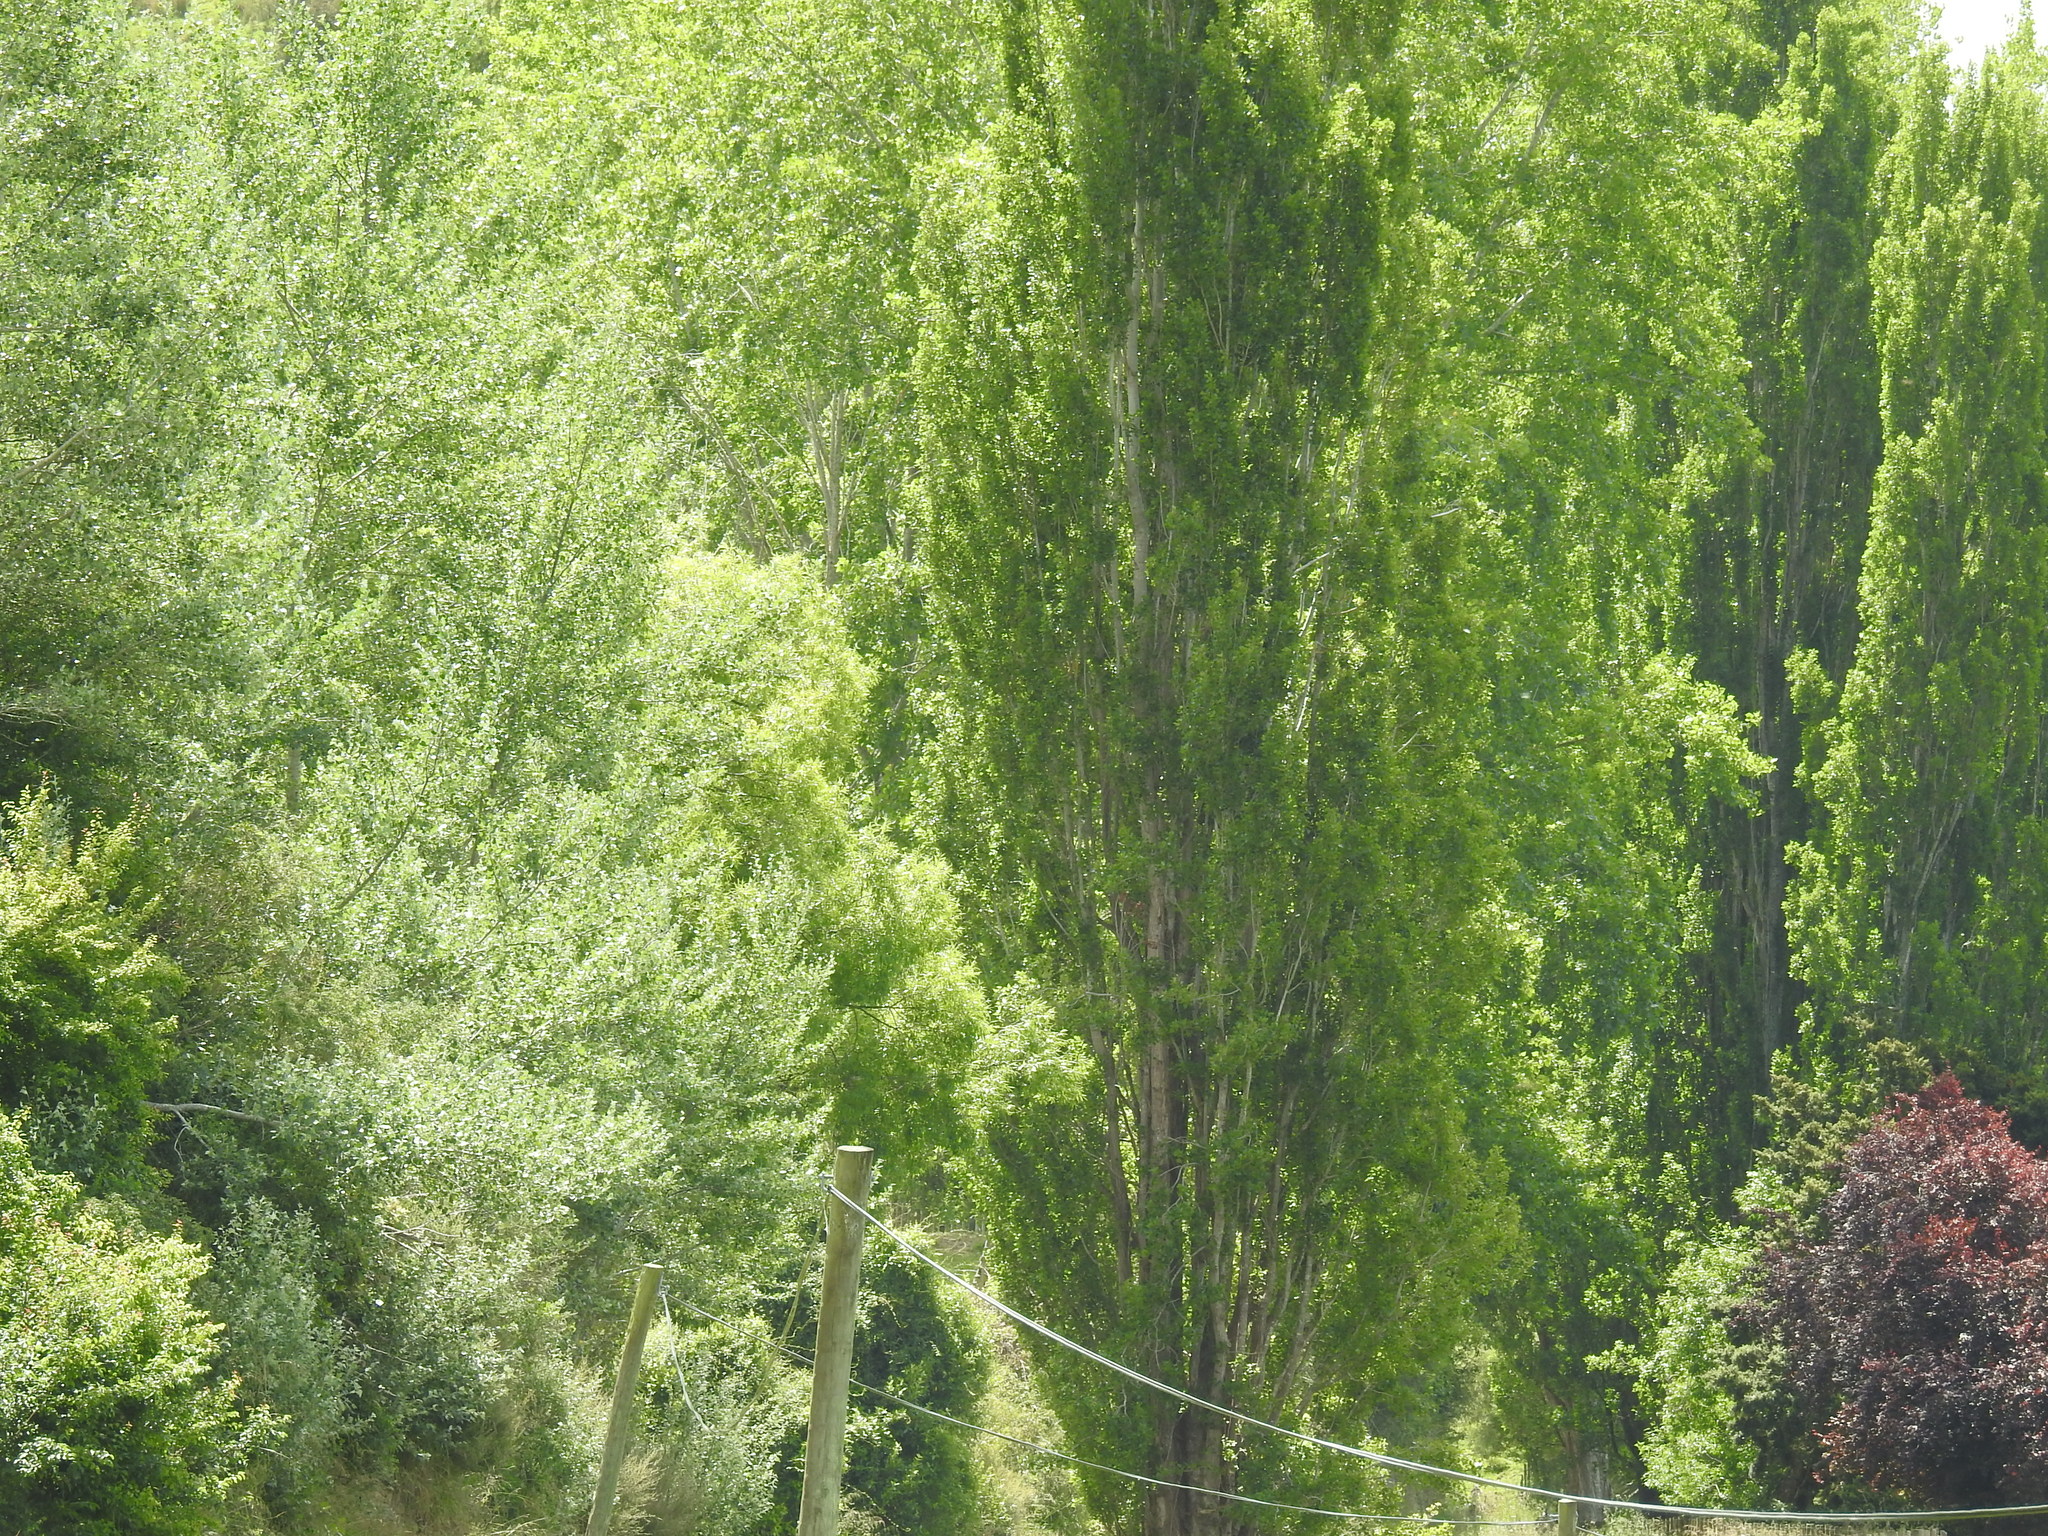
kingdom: Fungi
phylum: Basidiomycota
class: Agaricomycetes
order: Agaricales
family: Tubariaceae
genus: Cyclocybe
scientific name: Cyclocybe parasitica
